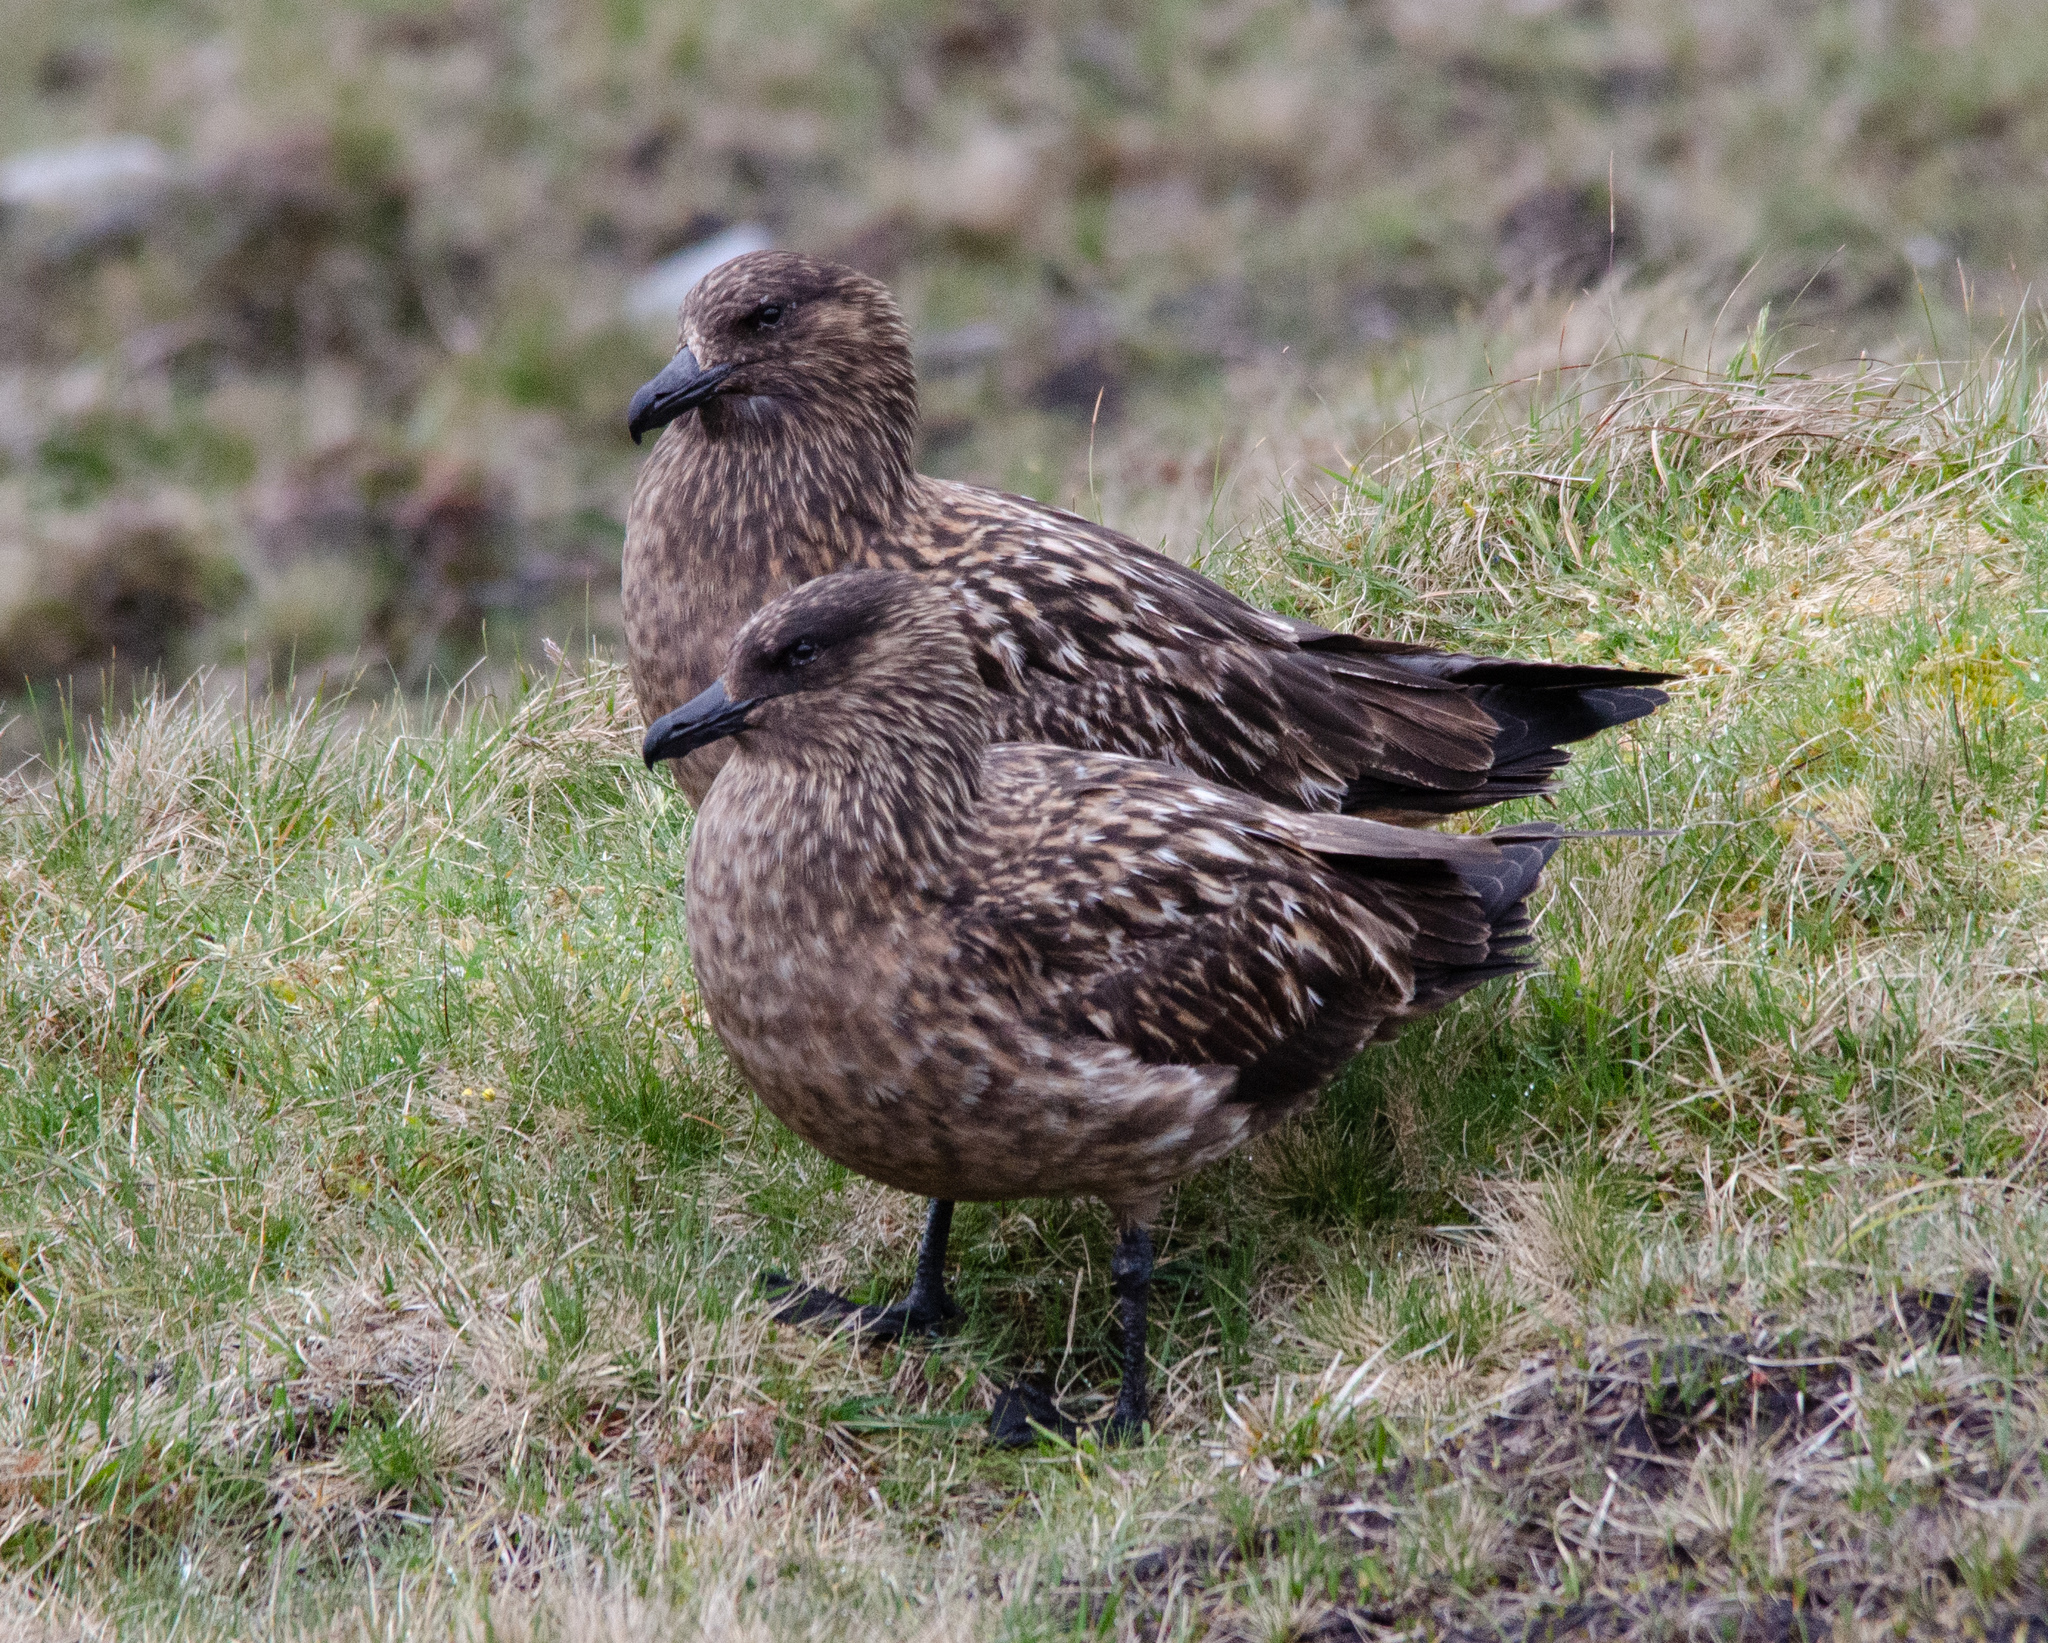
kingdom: Animalia
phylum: Chordata
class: Aves
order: Charadriiformes
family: Stercorariidae
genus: Stercorarius
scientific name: Stercorarius skua
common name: Great skua
